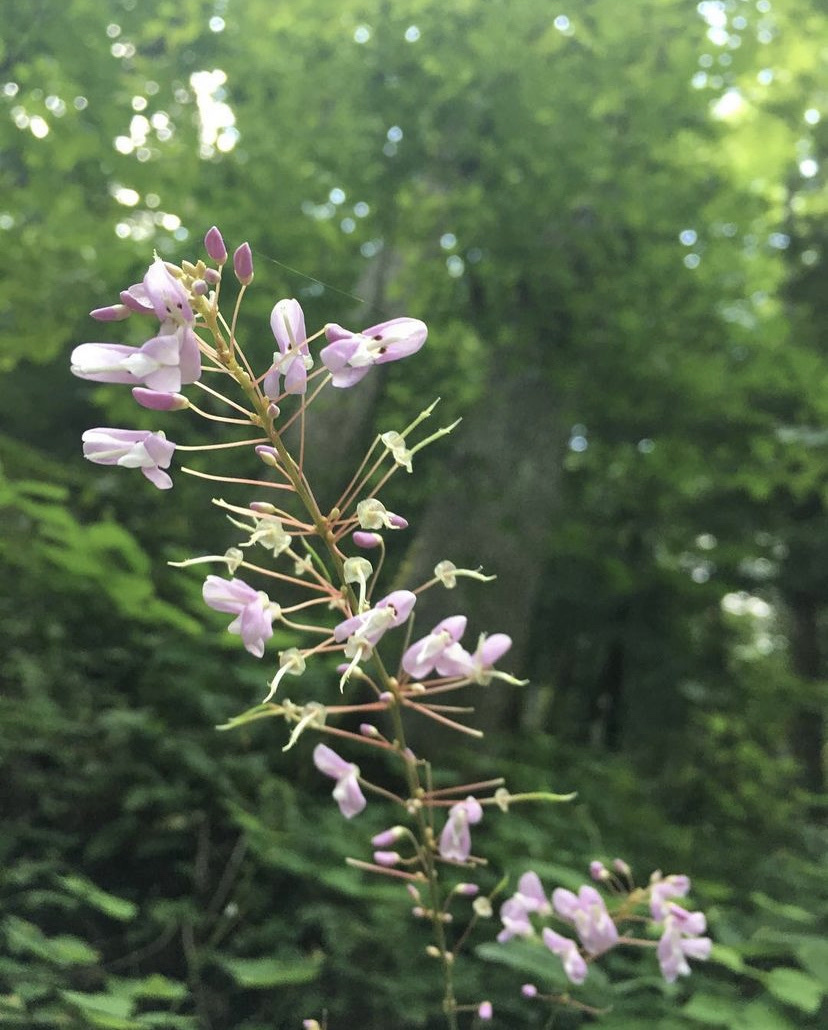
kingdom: Plantae
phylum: Tracheophyta
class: Magnoliopsida
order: Fabales
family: Fabaceae
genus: Hylodesmum
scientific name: Hylodesmum nudiflorum
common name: Bare-stemmed tick-trefoil
